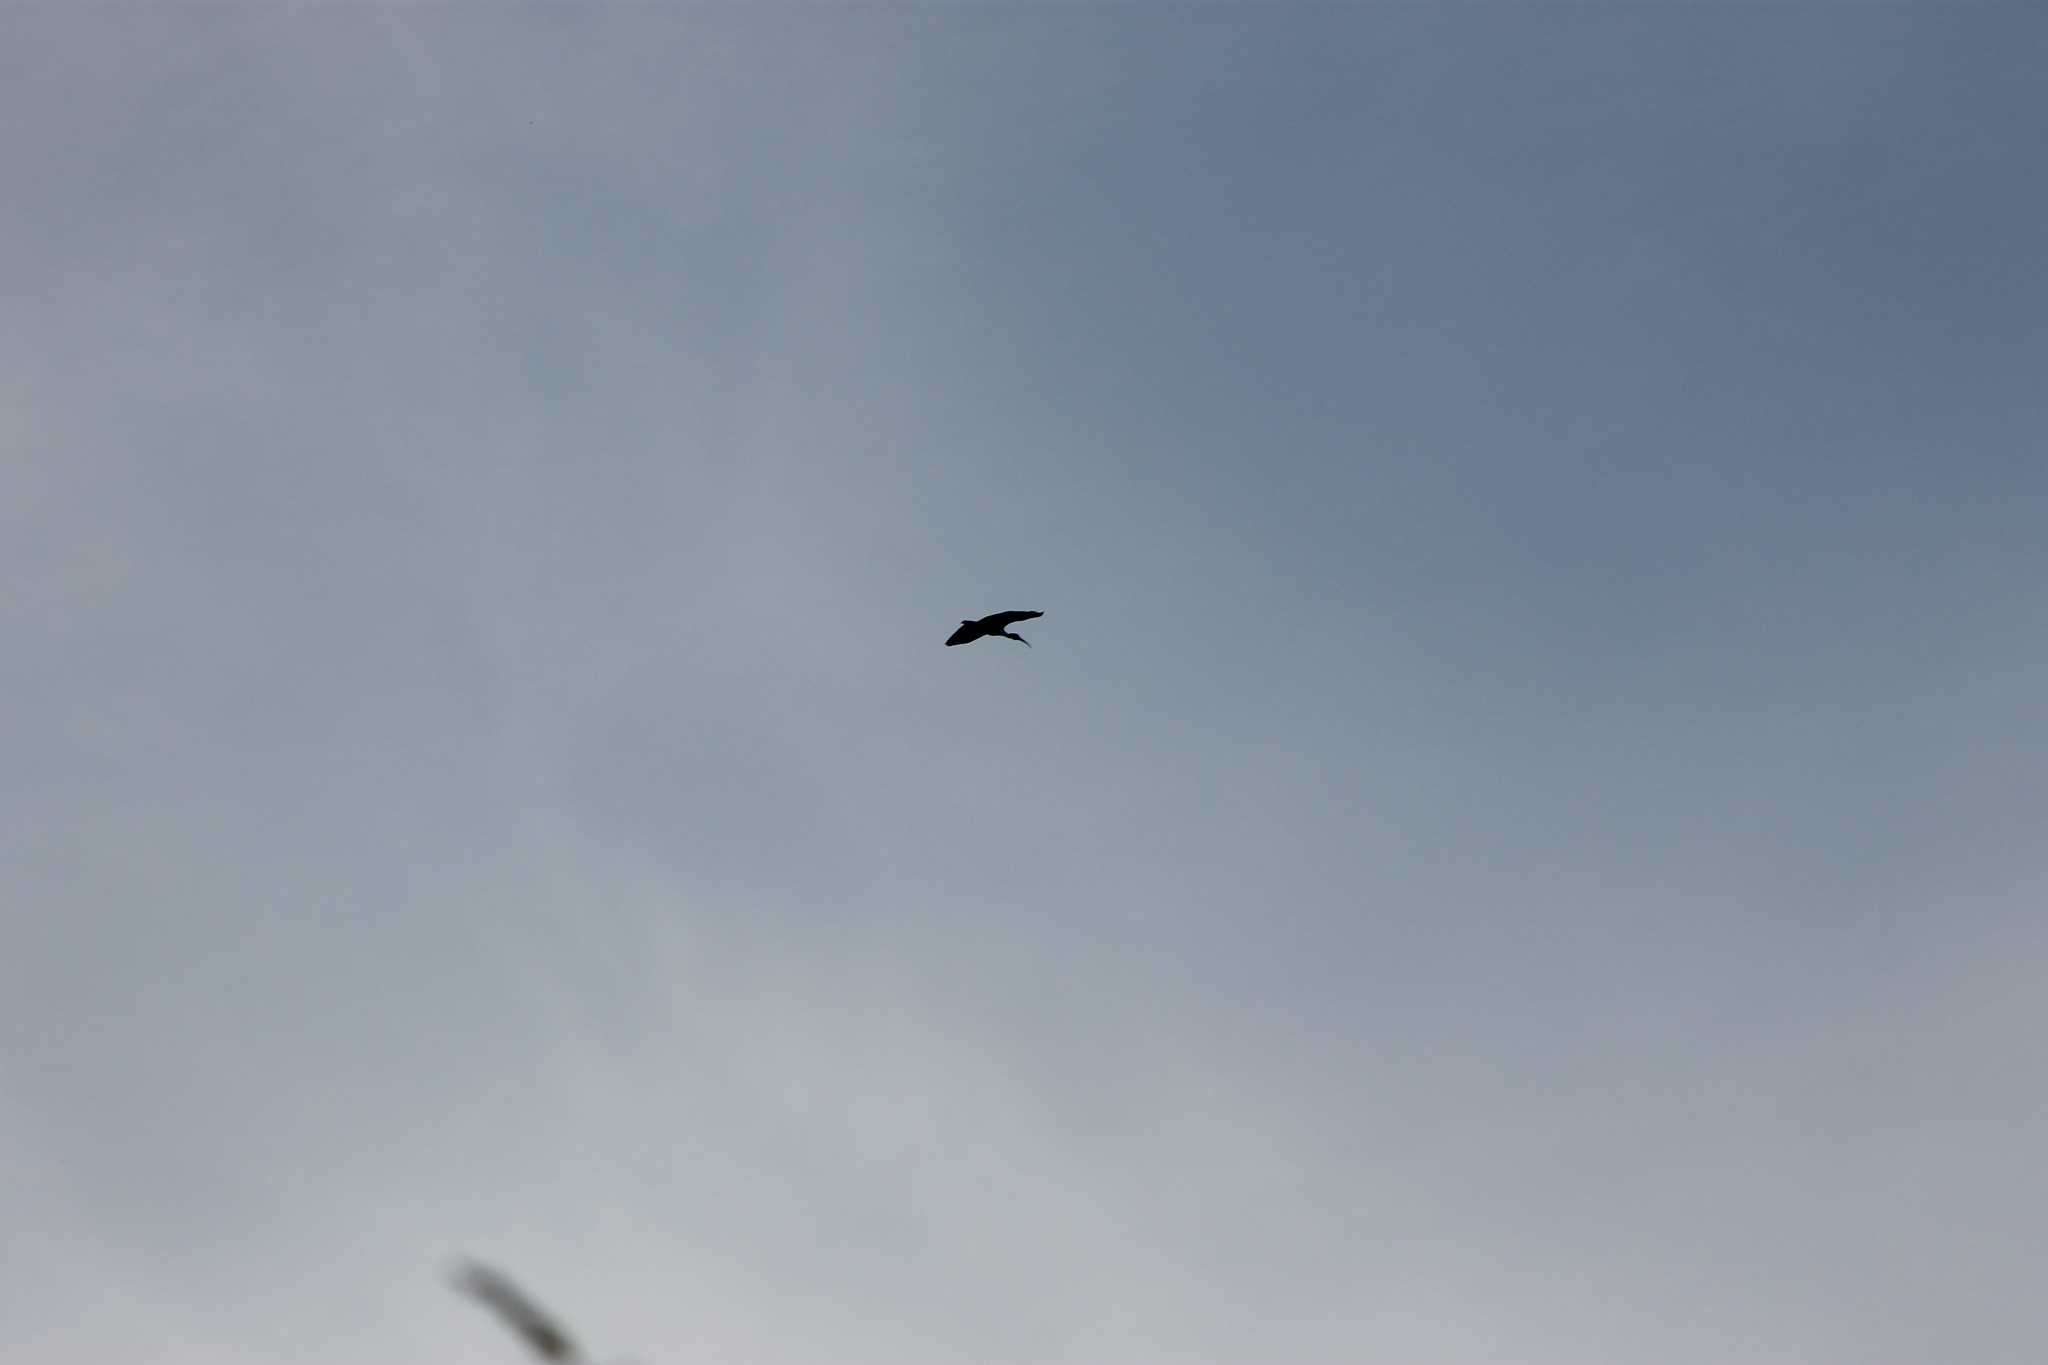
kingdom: Animalia
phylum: Chordata
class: Aves
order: Pelecaniformes
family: Threskiornithidae
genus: Phimosus
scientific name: Phimosus infuscatus
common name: Bare-faced ibis
